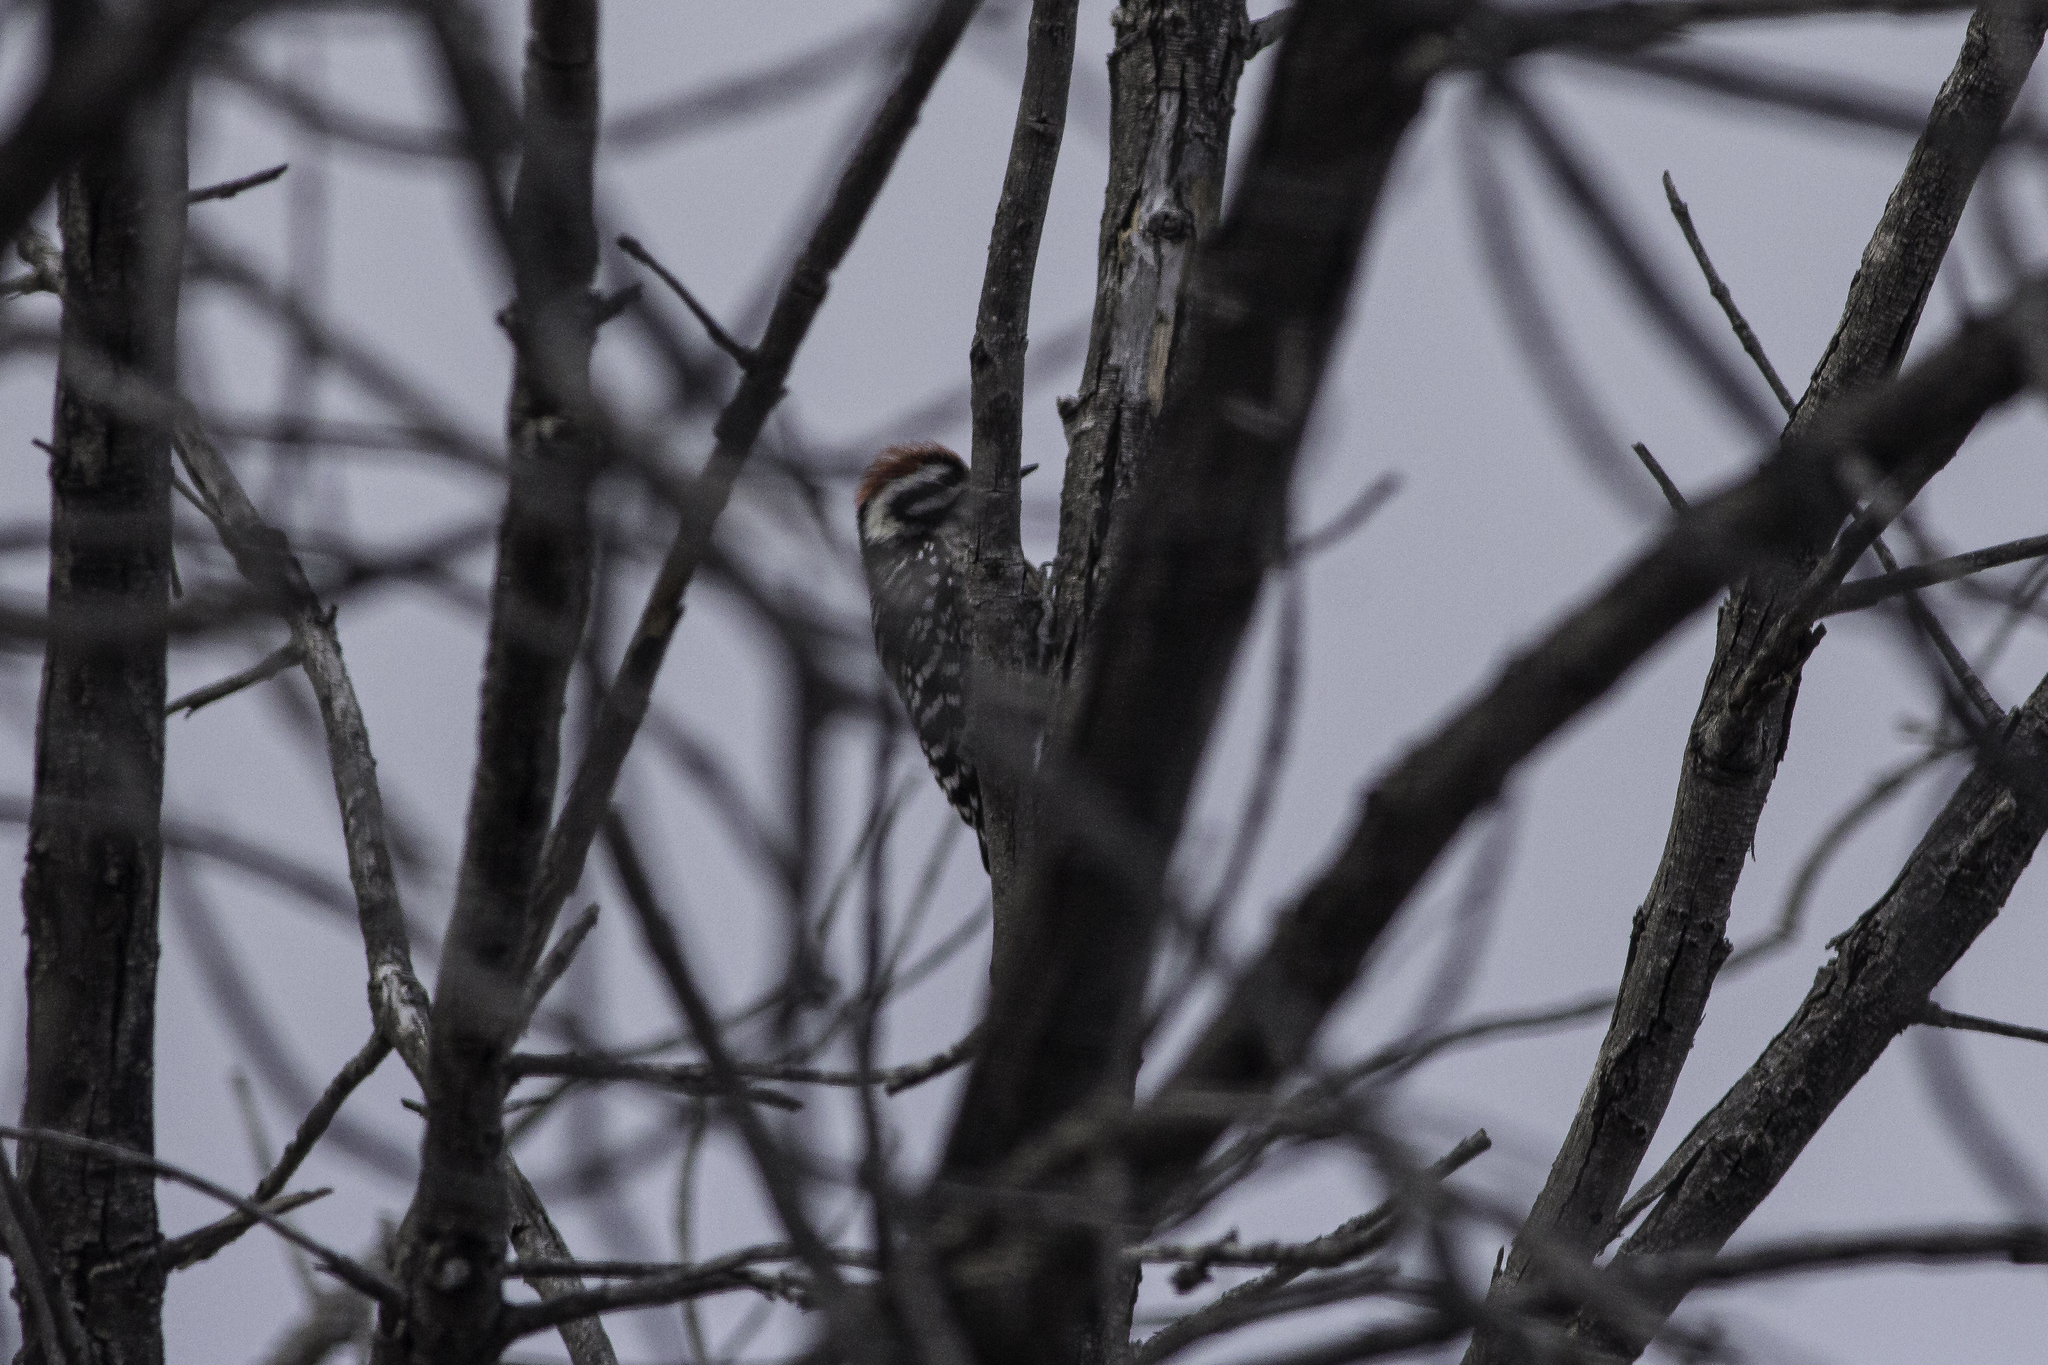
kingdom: Animalia
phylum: Chordata
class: Aves
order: Piciformes
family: Picidae
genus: Dryobates
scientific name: Dryobates scalaris
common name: Ladder-backed woodpecker
